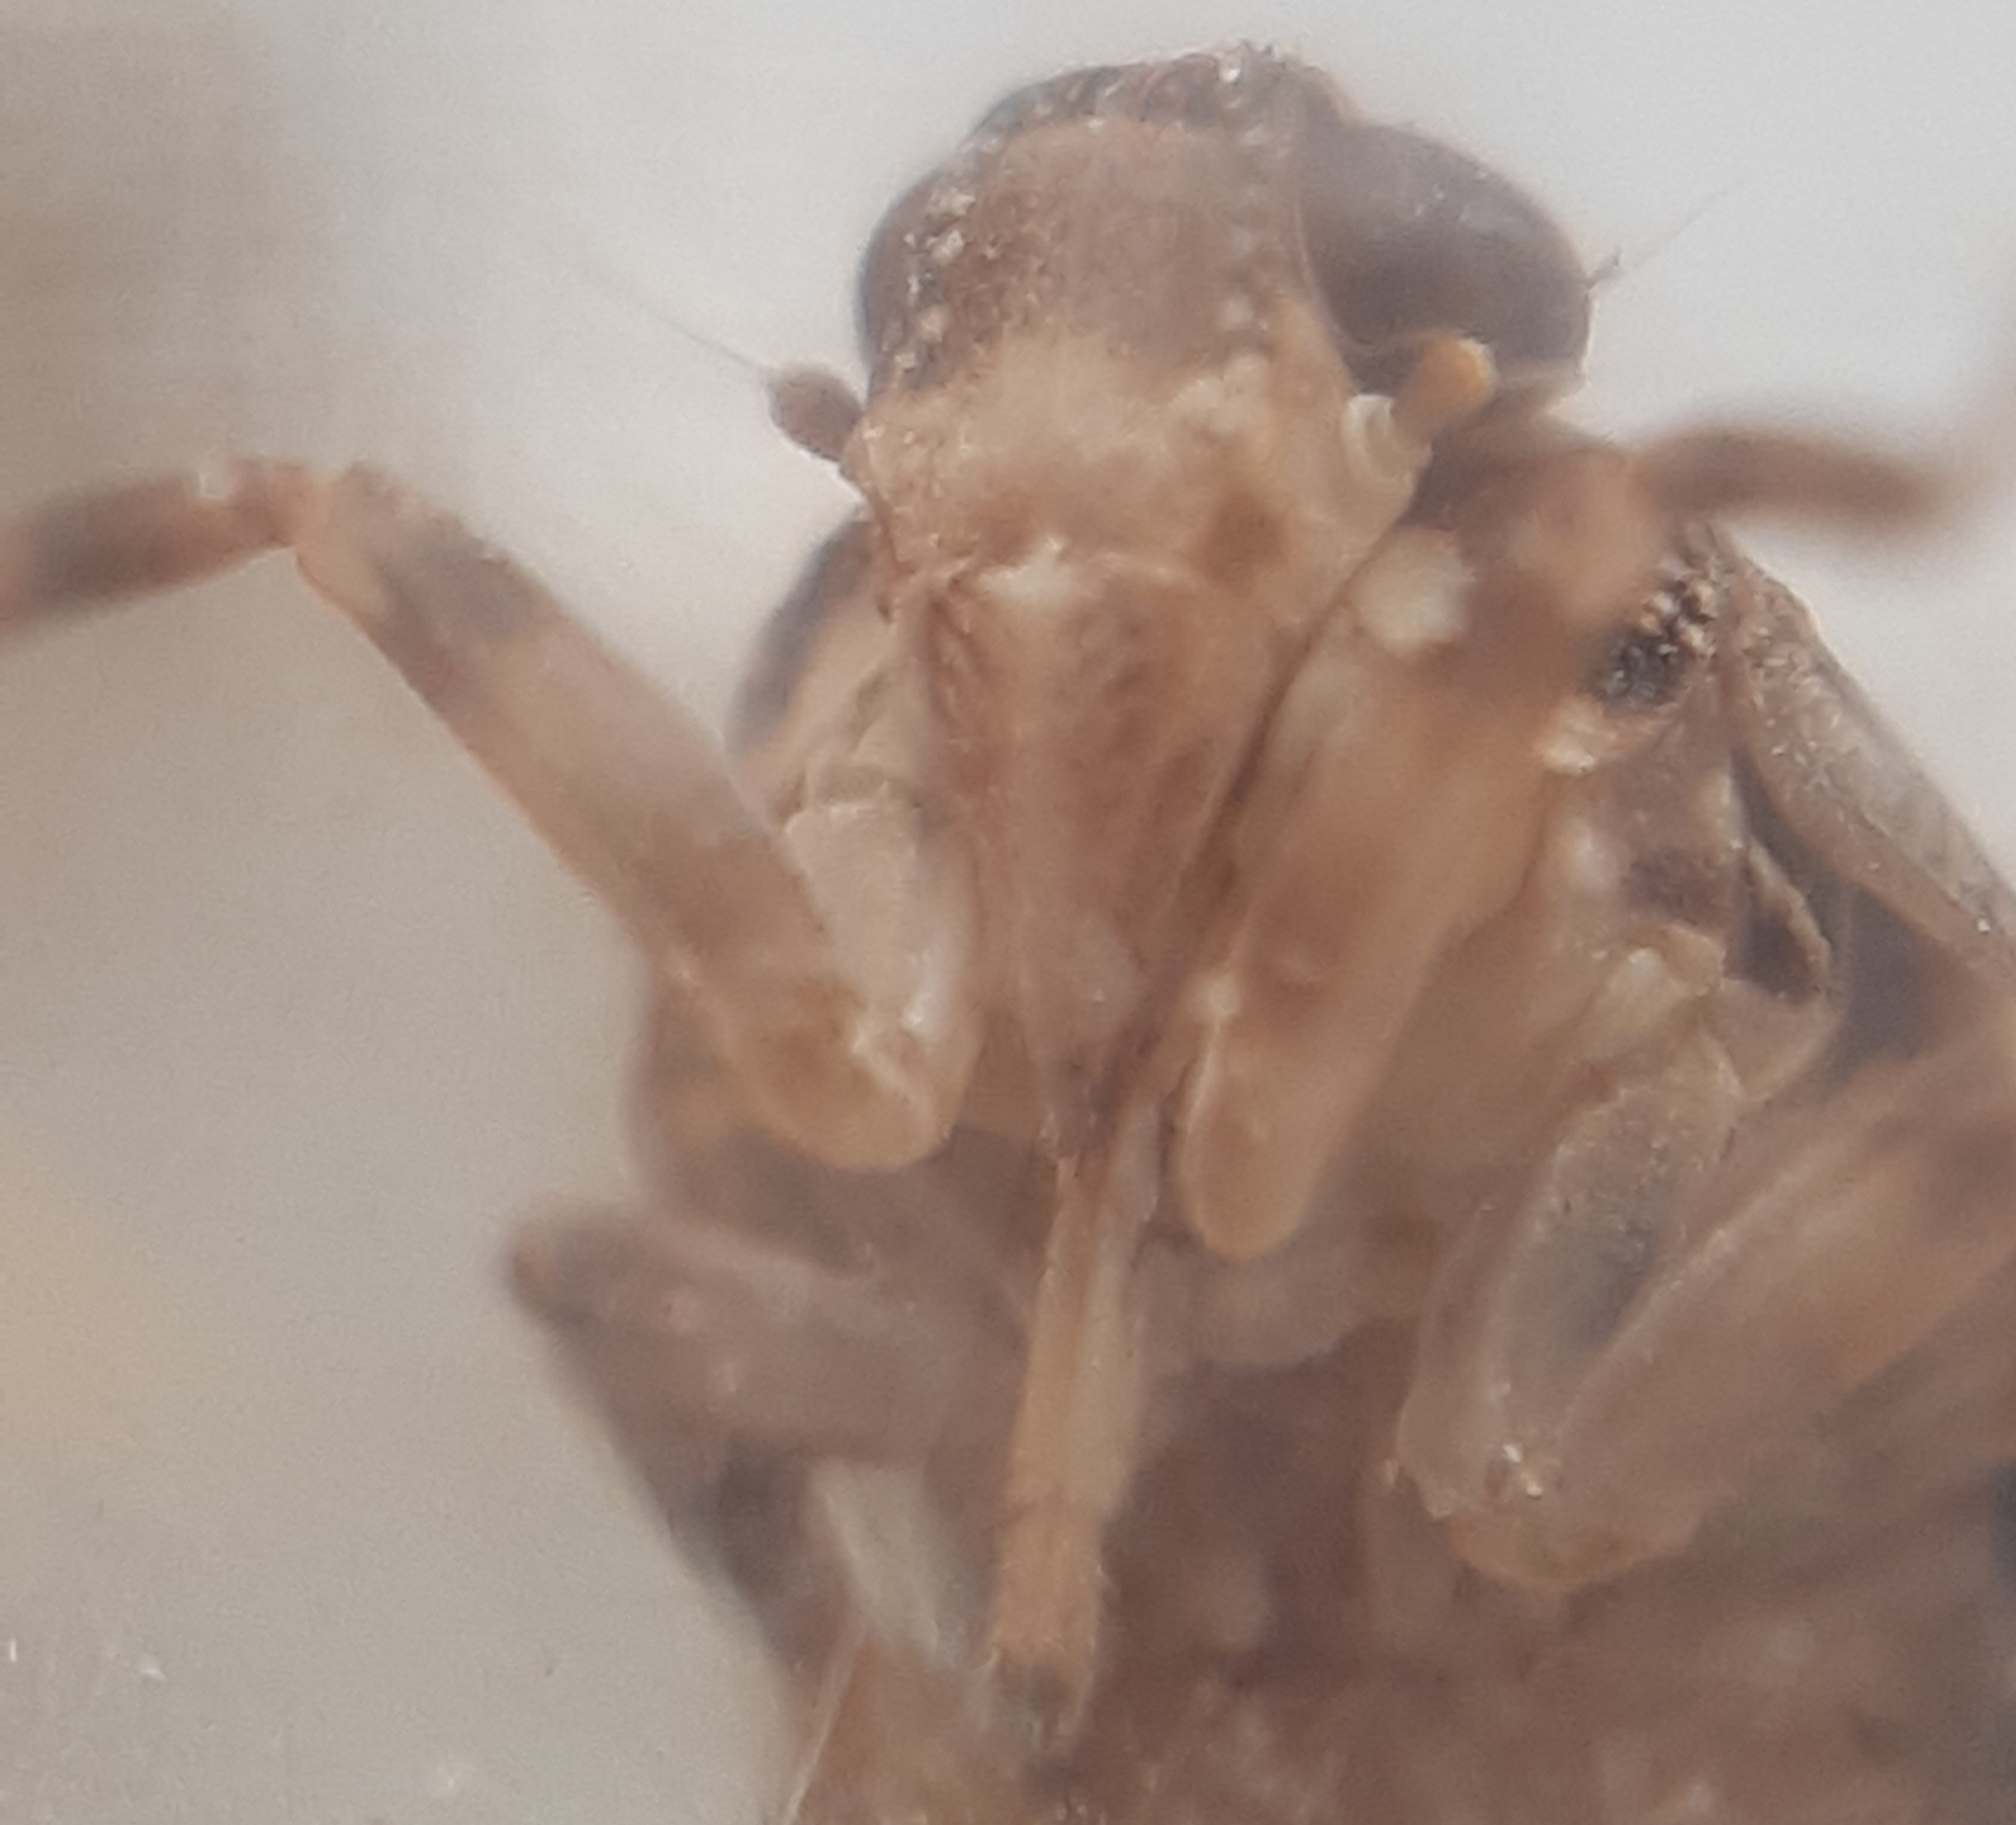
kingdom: Animalia
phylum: Arthropoda
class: Insecta
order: Hemiptera
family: Issidae
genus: Issus
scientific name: Issus coleoptratus
